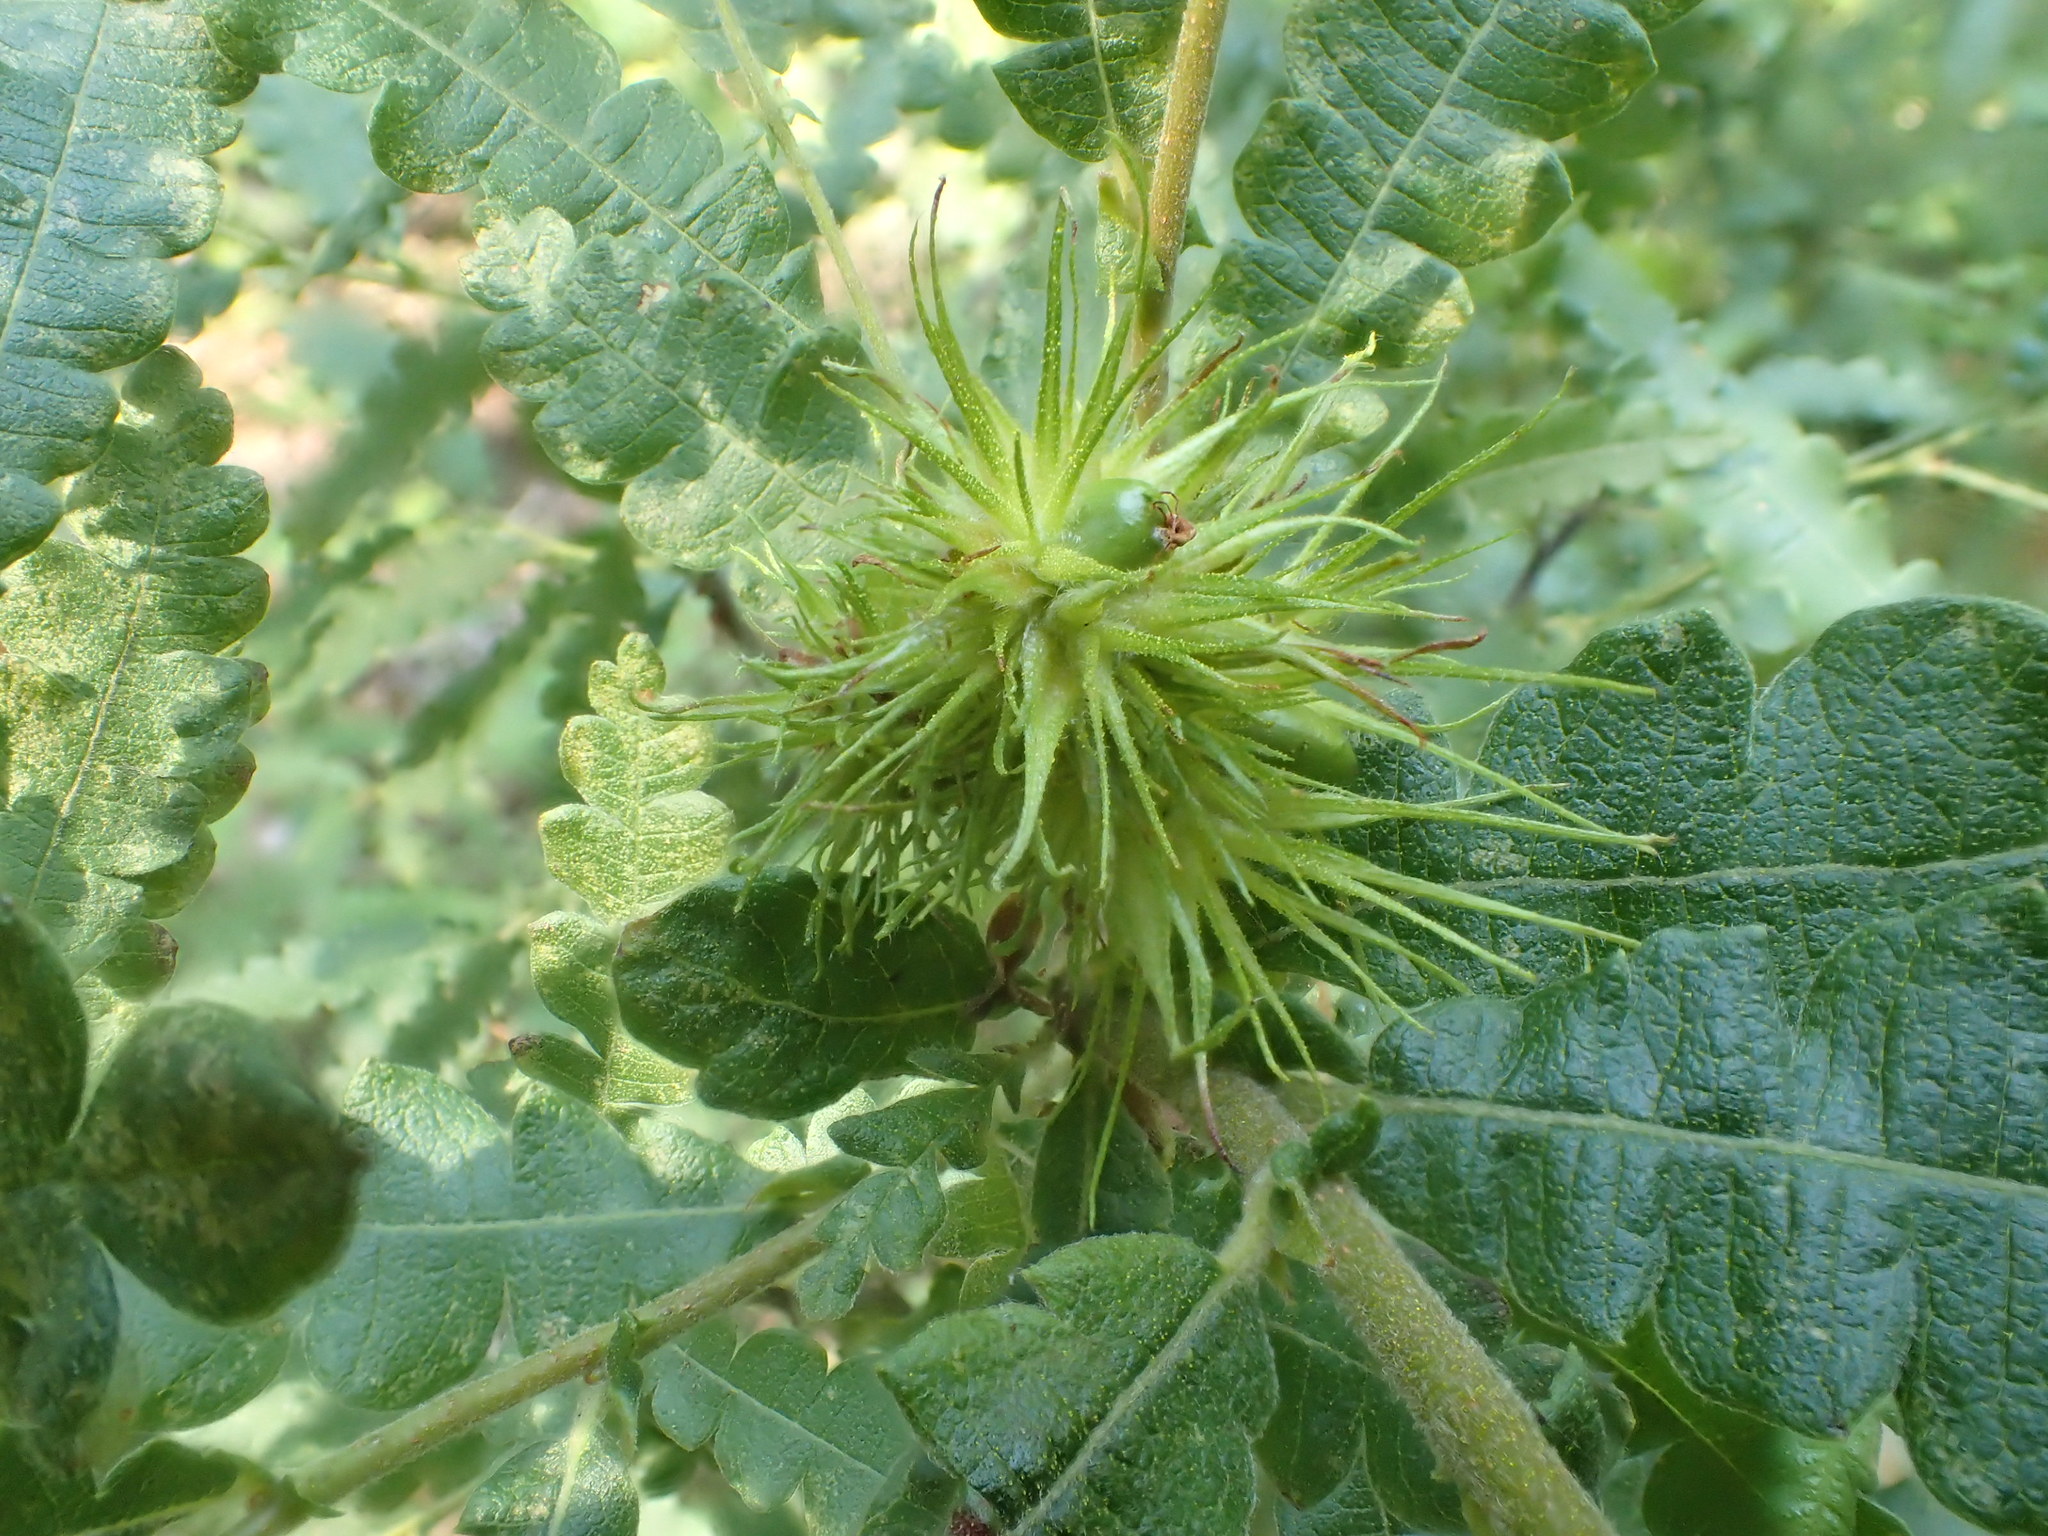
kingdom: Plantae
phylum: Tracheophyta
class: Magnoliopsida
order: Fagales
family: Myricaceae
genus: Comptonia
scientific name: Comptonia peregrina
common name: Sweet-fern
